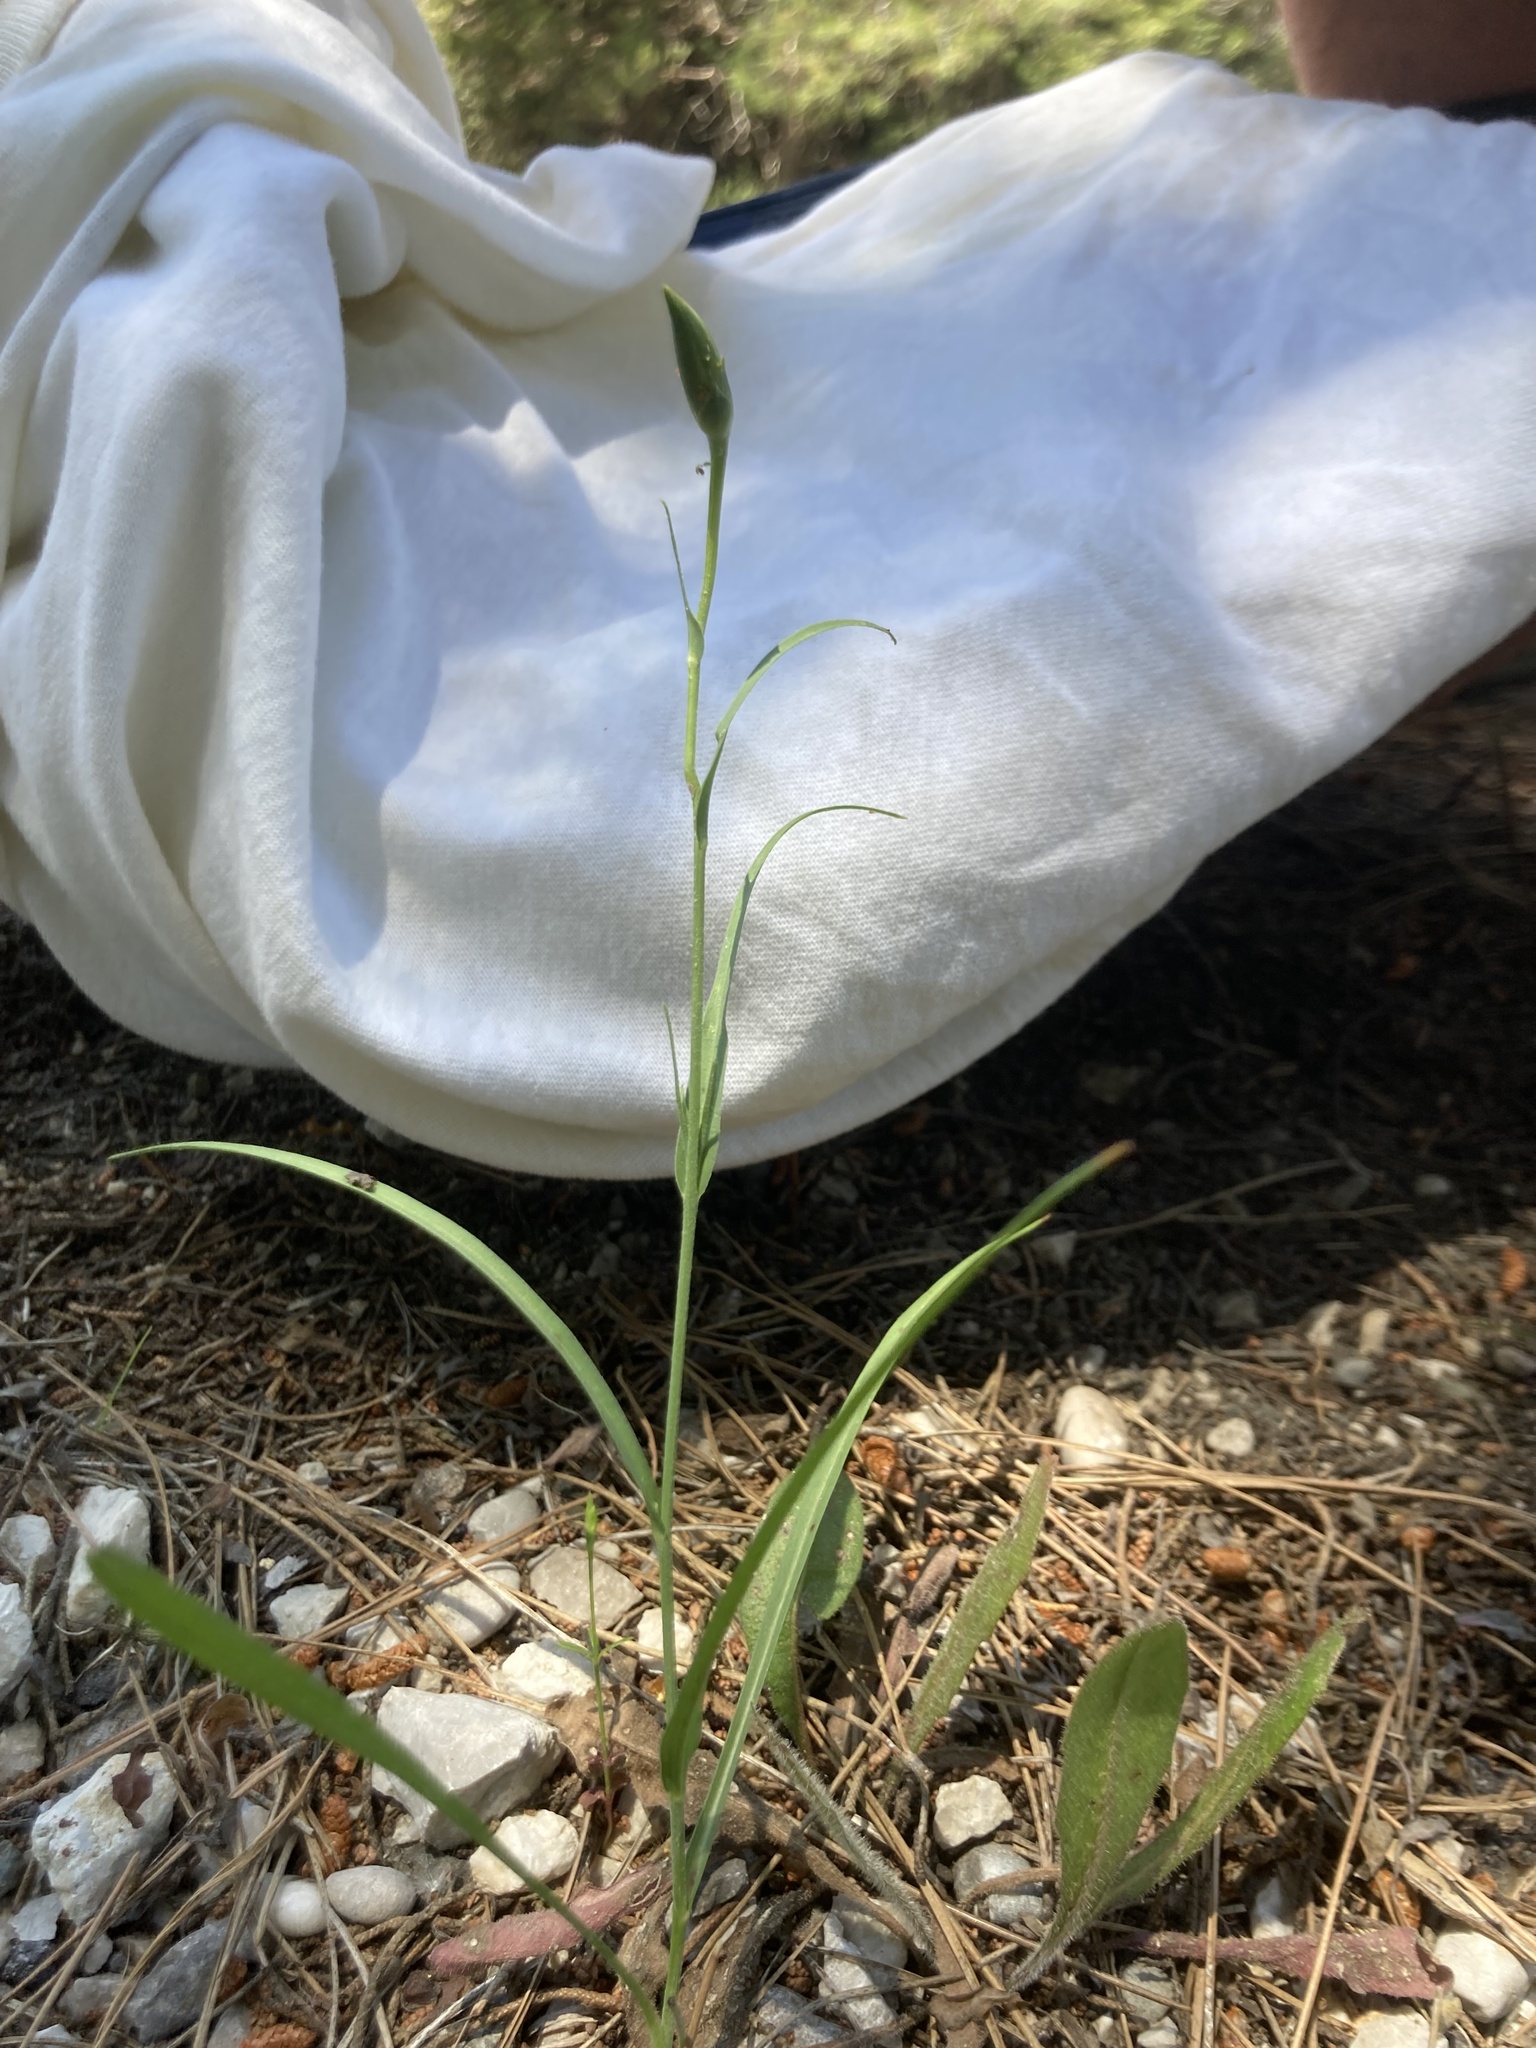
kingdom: Plantae
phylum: Tracheophyta
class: Magnoliopsida
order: Asterales
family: Asteraceae
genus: Candollea
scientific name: Candollea elata
